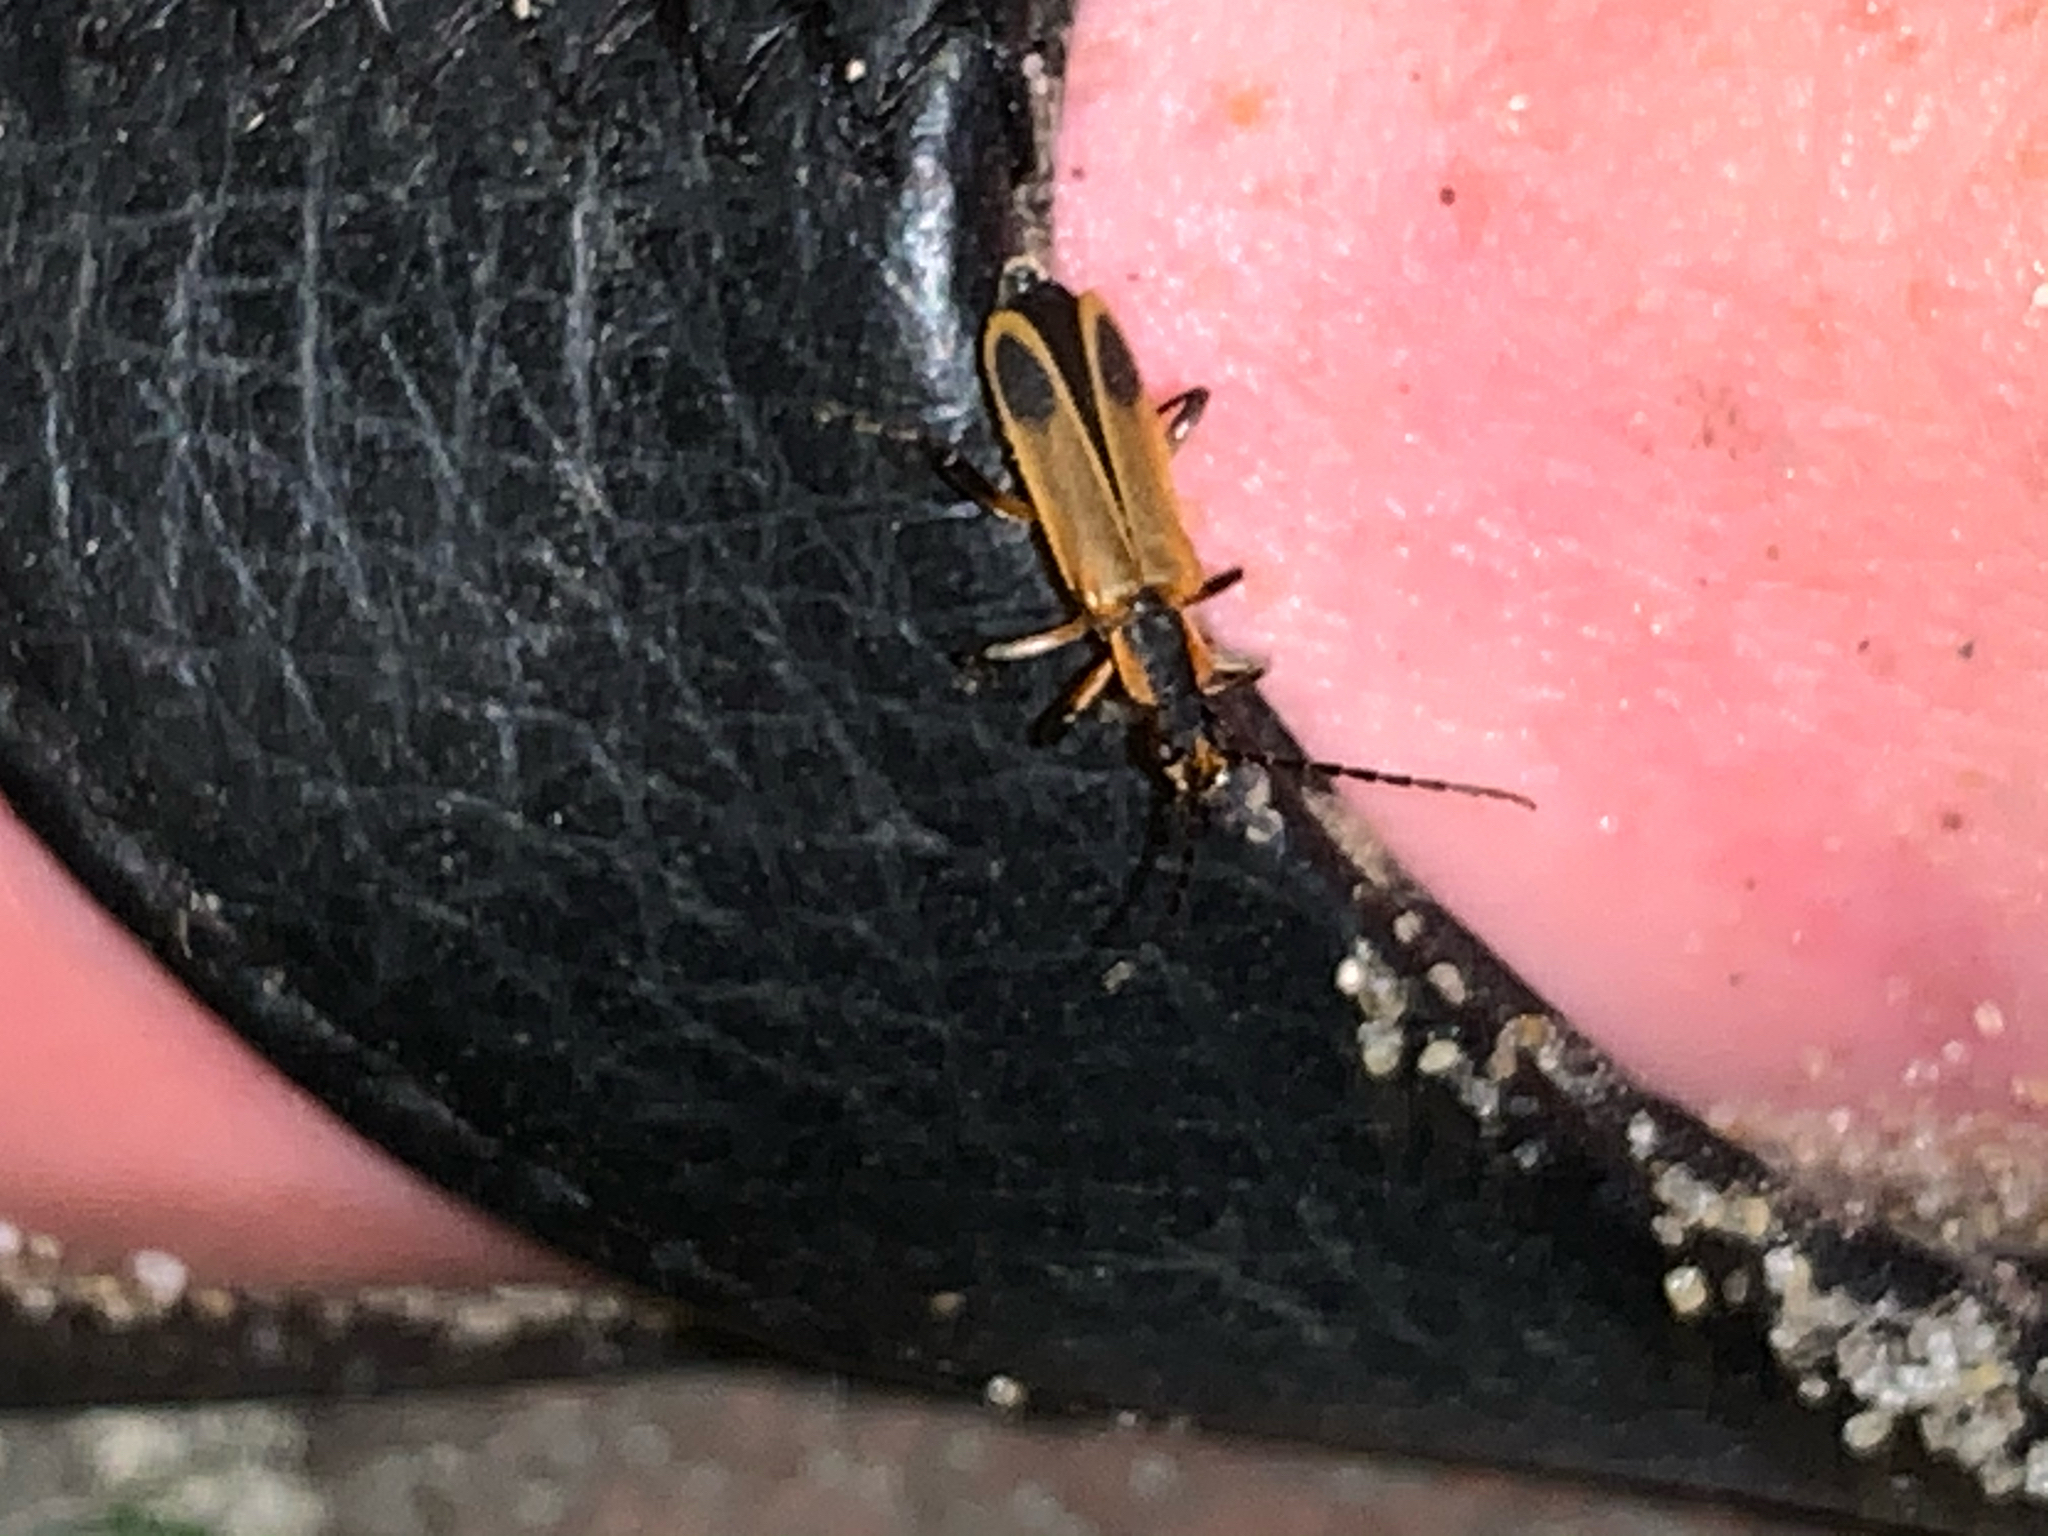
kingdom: Animalia
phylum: Arthropoda
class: Insecta
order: Coleoptera
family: Cantharidae
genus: Chauliognathus
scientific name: Chauliognathus marginatus
